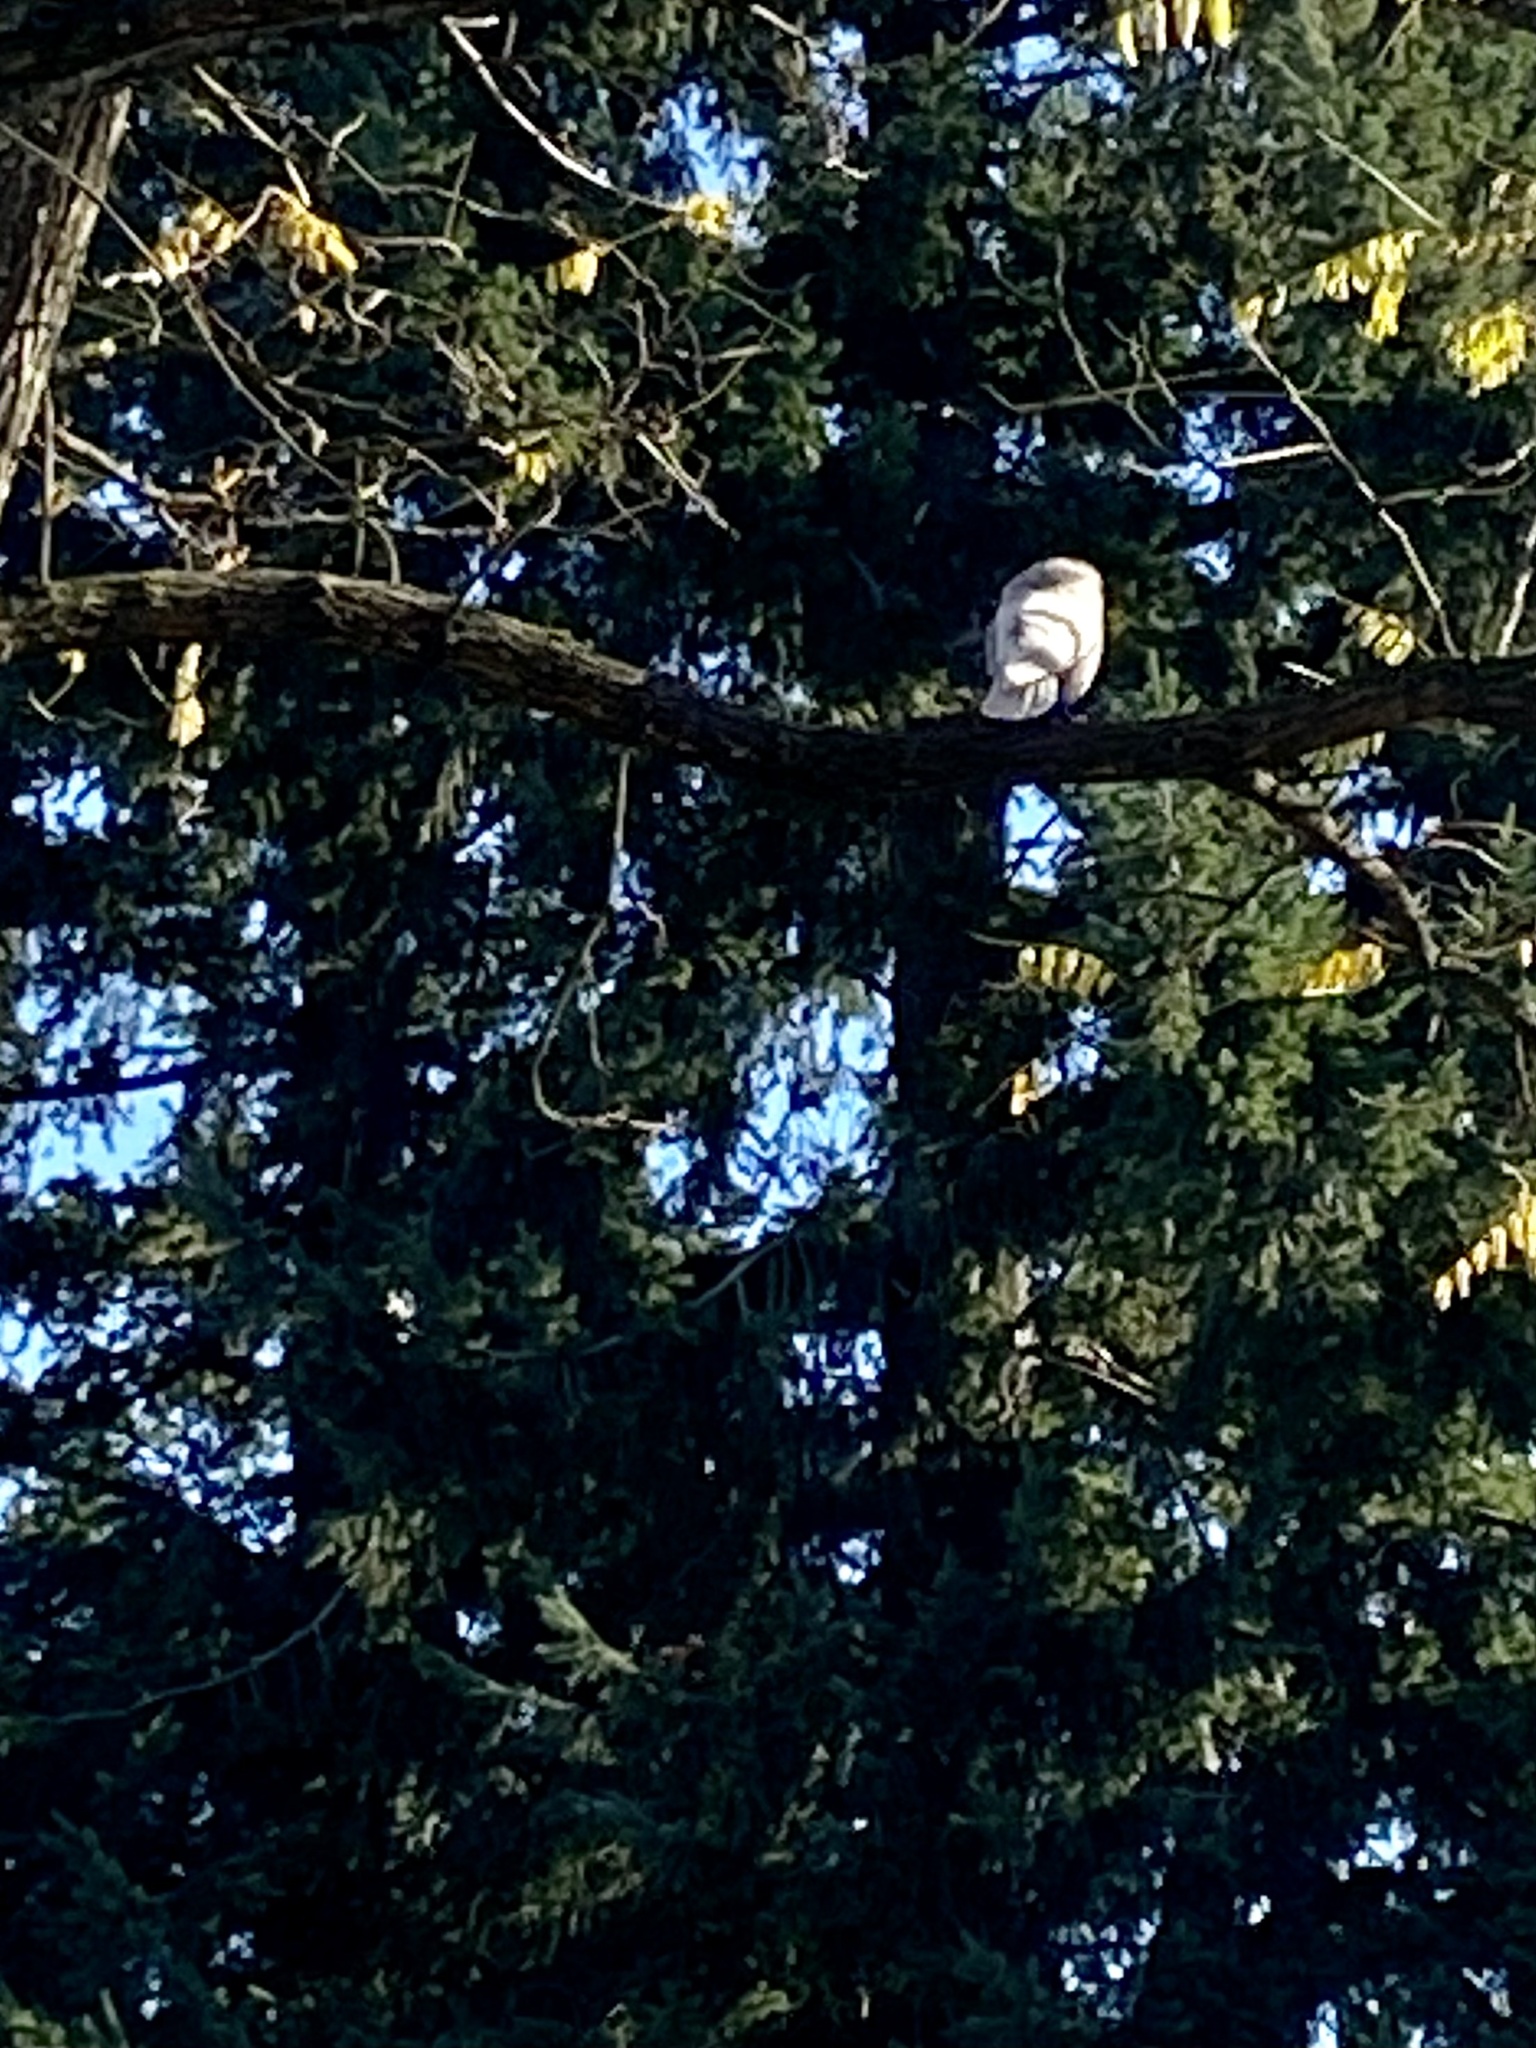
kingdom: Animalia
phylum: Chordata
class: Aves
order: Passeriformes
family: Corvidae
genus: Corvus
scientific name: Corvus brachyrhynchos
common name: American crow
